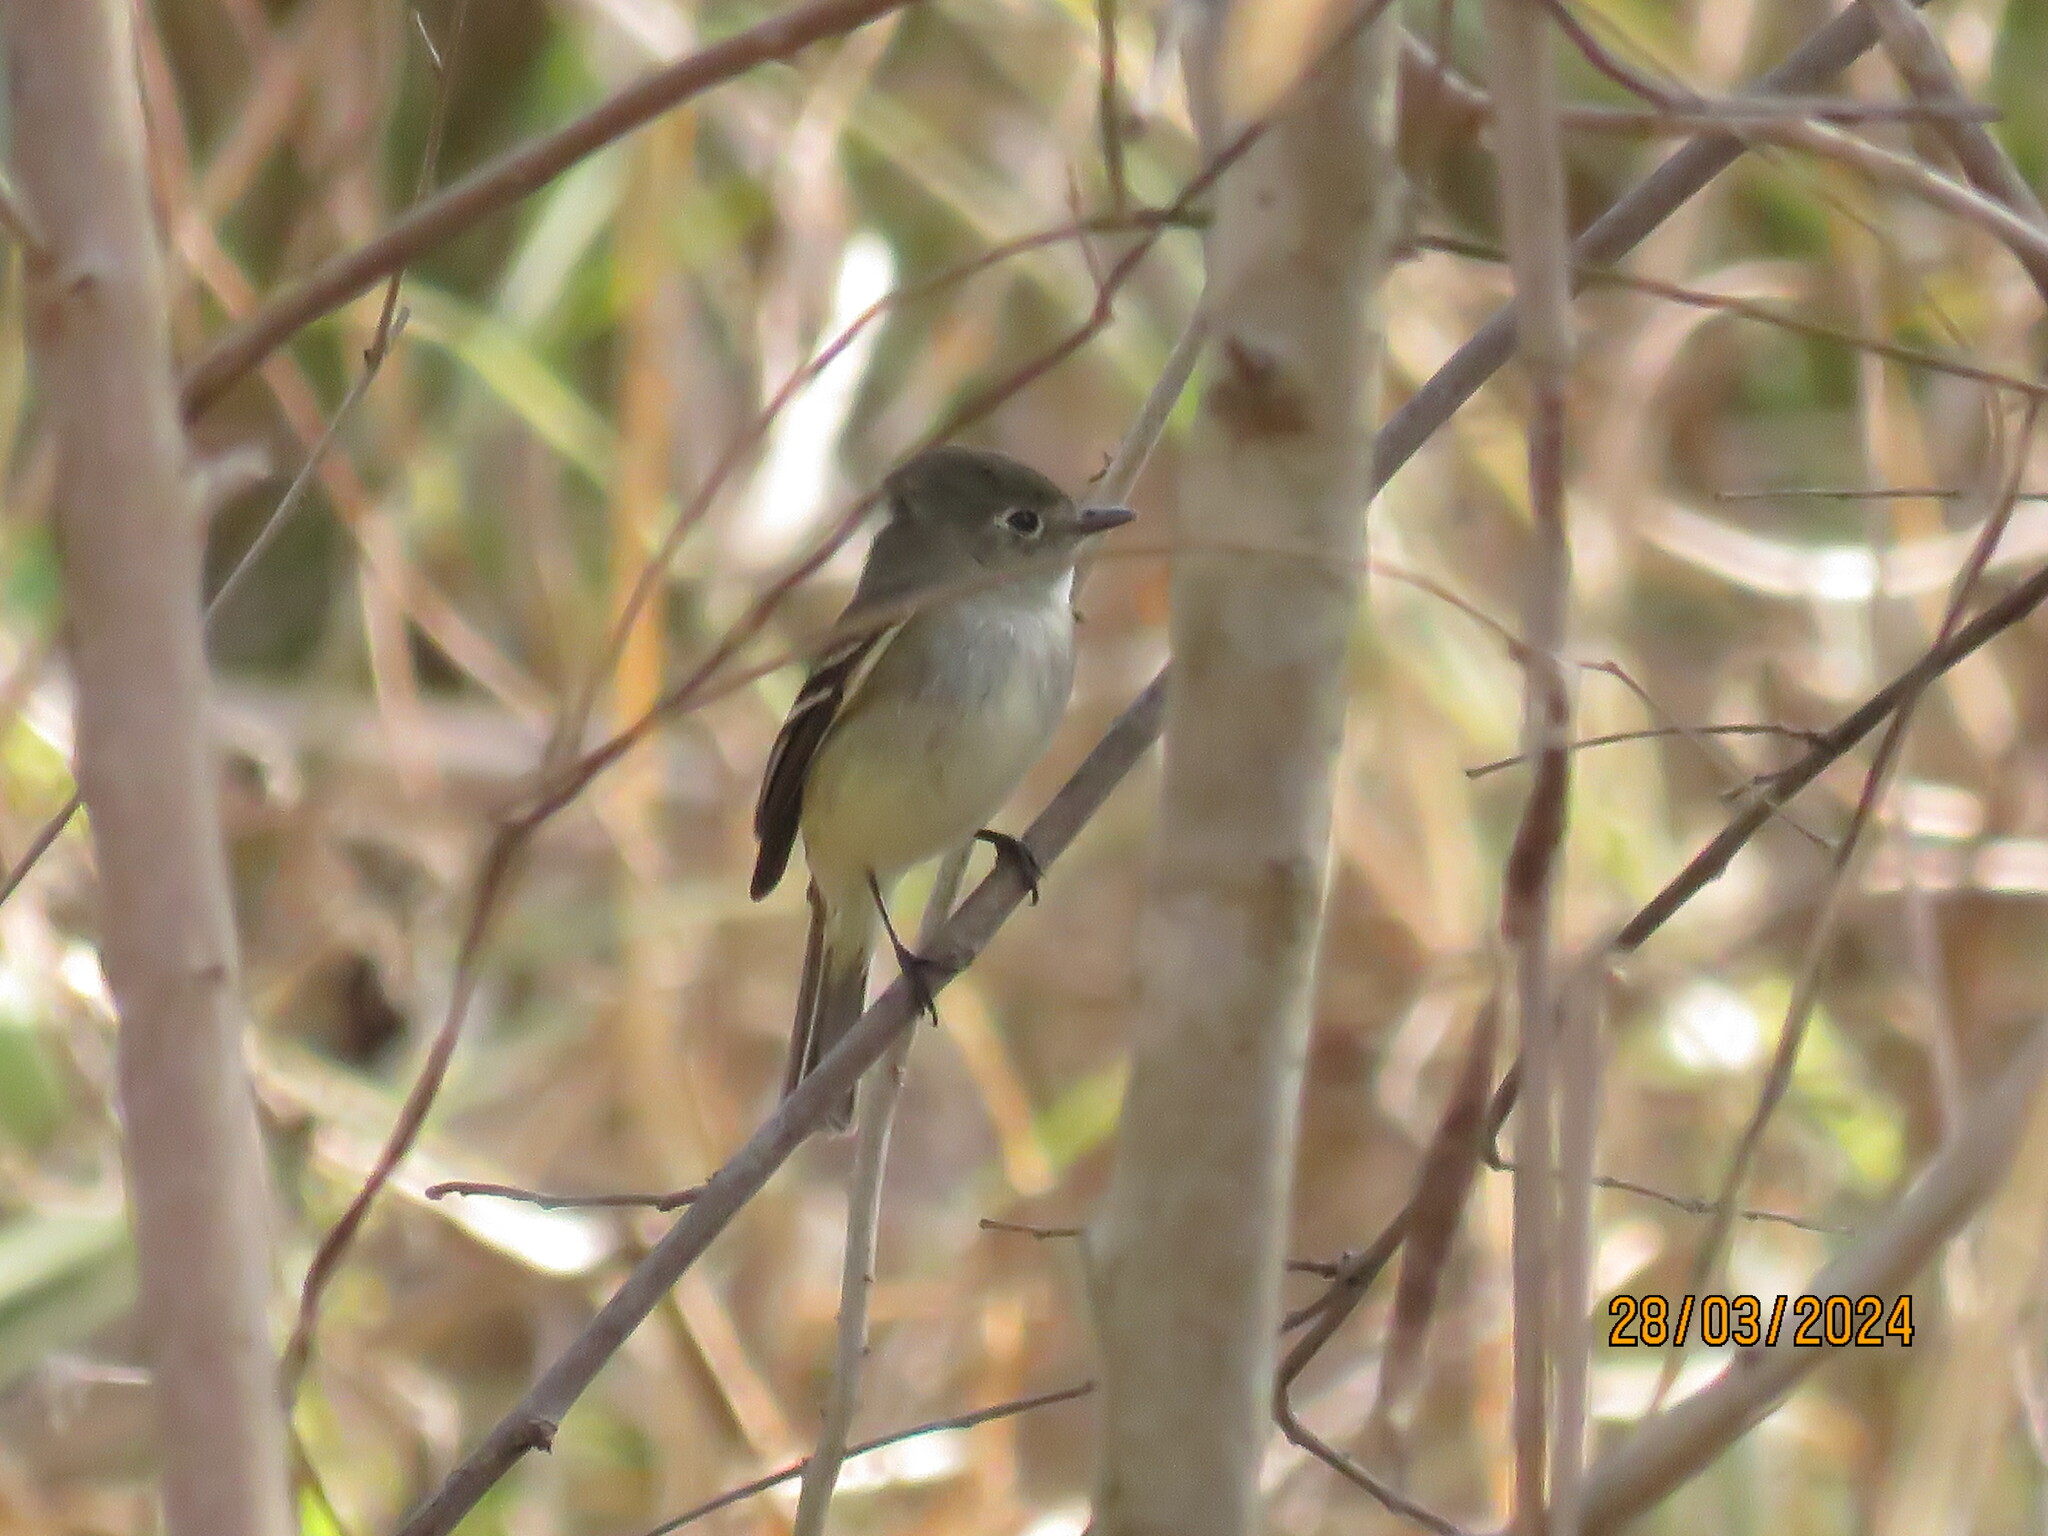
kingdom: Animalia
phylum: Chordata
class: Aves
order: Passeriformes
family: Tyrannidae
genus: Empidonax
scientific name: Empidonax minimus
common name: Least flycatcher
